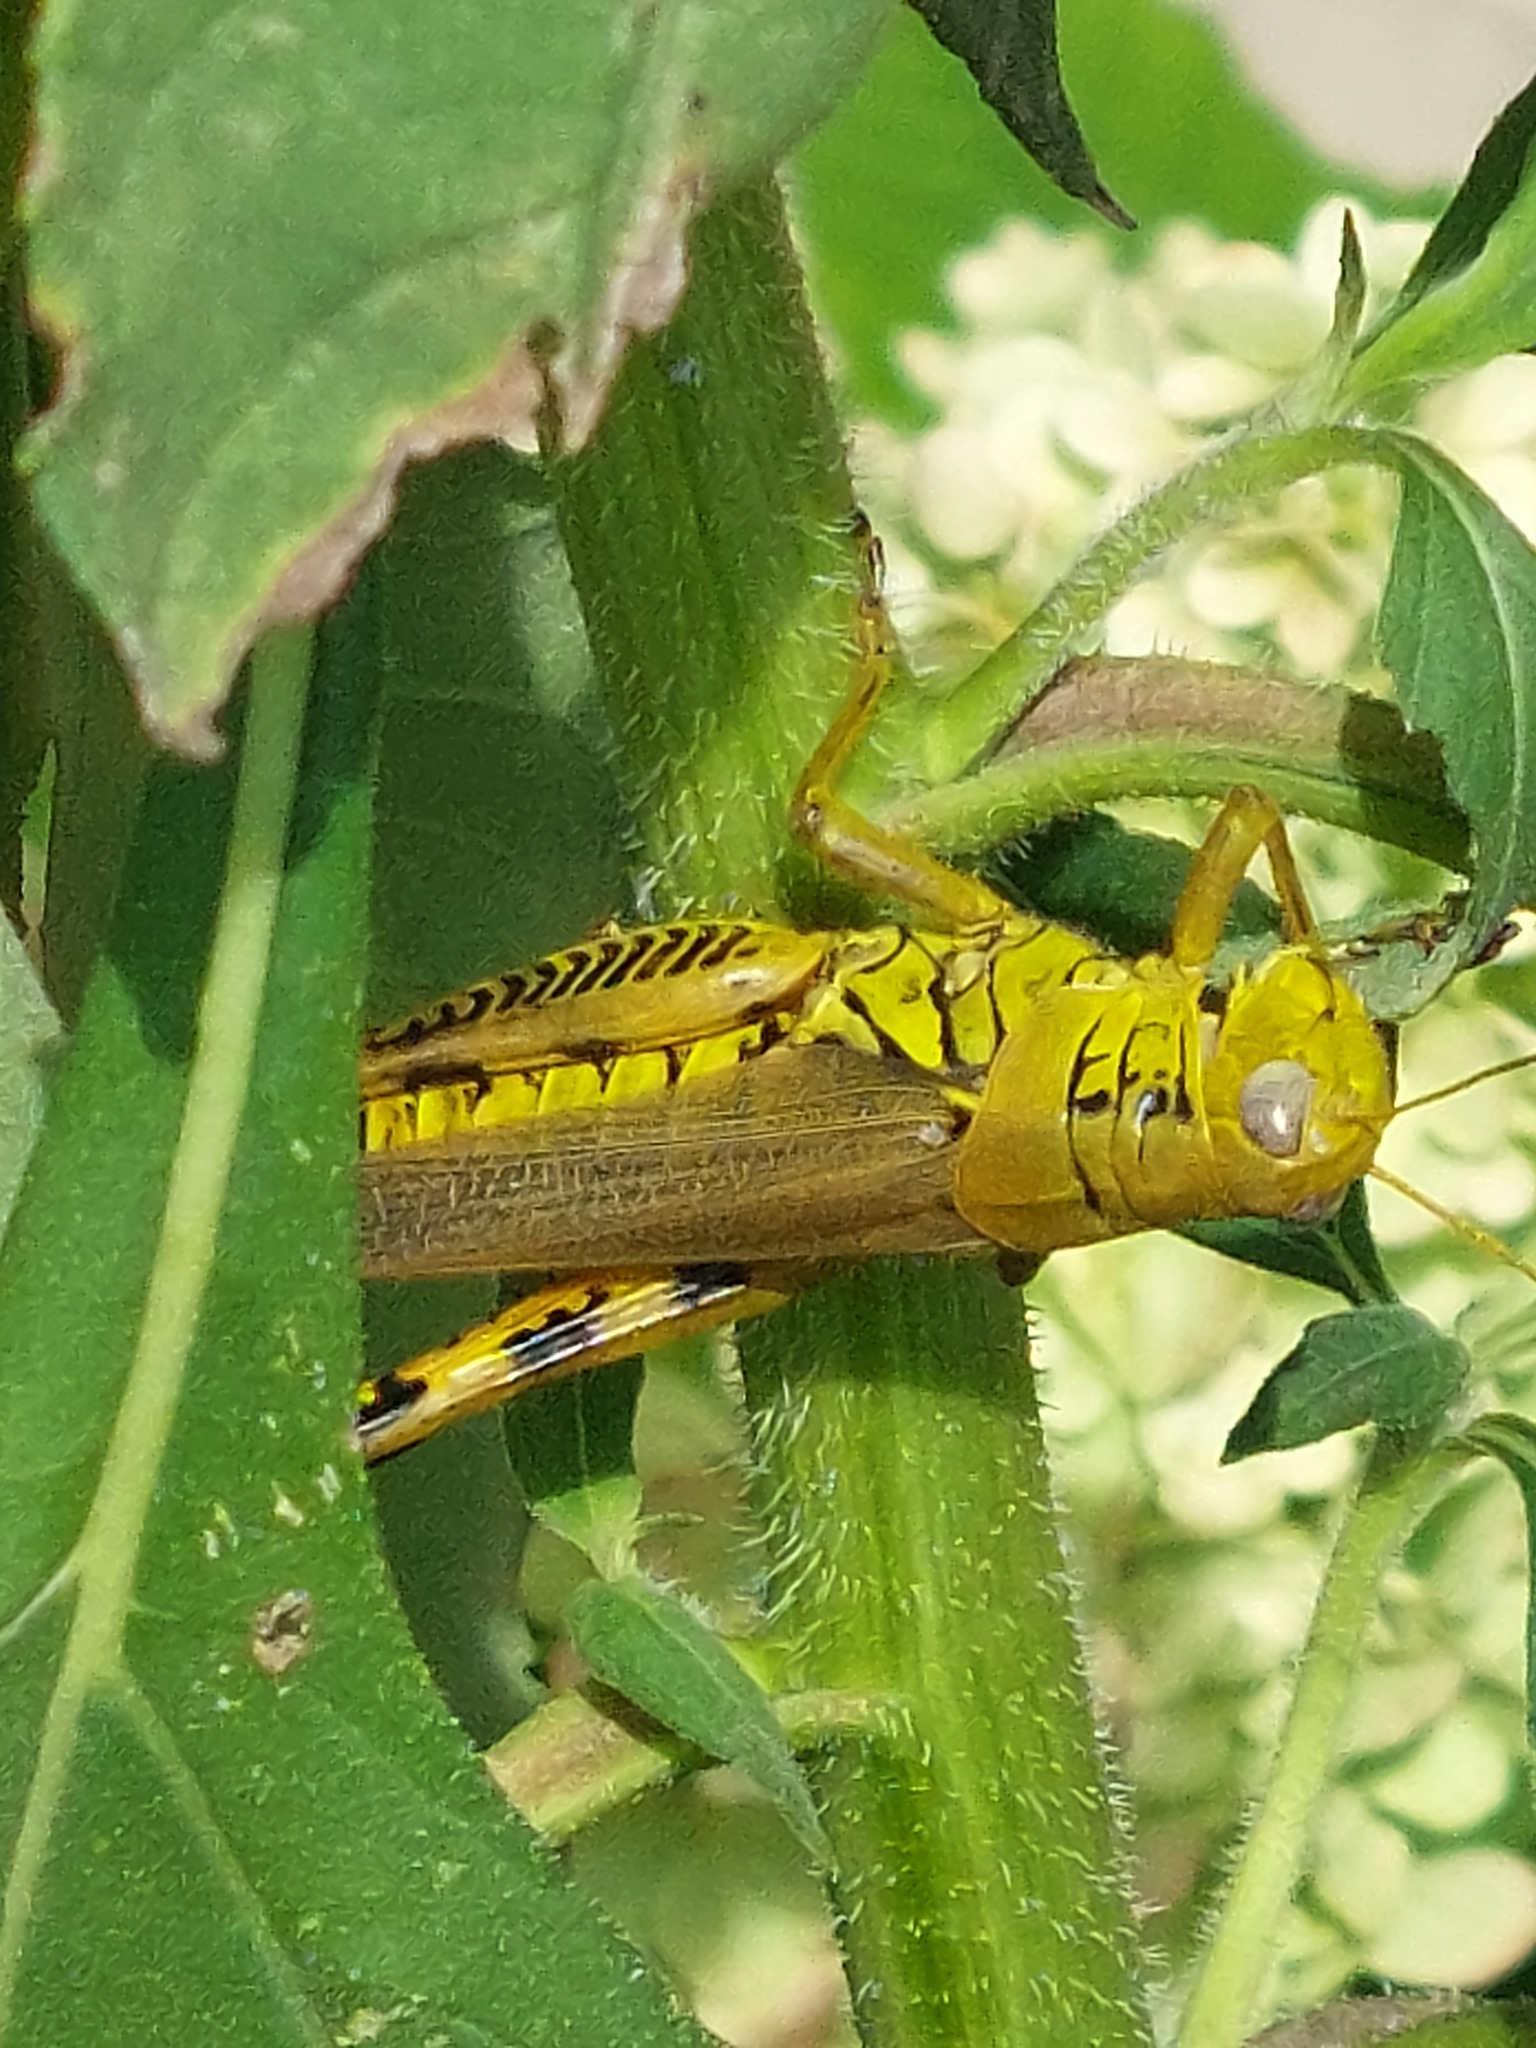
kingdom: Animalia
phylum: Arthropoda
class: Insecta
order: Orthoptera
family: Acrididae
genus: Melanoplus
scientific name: Melanoplus differentialis
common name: Differential grasshopper
